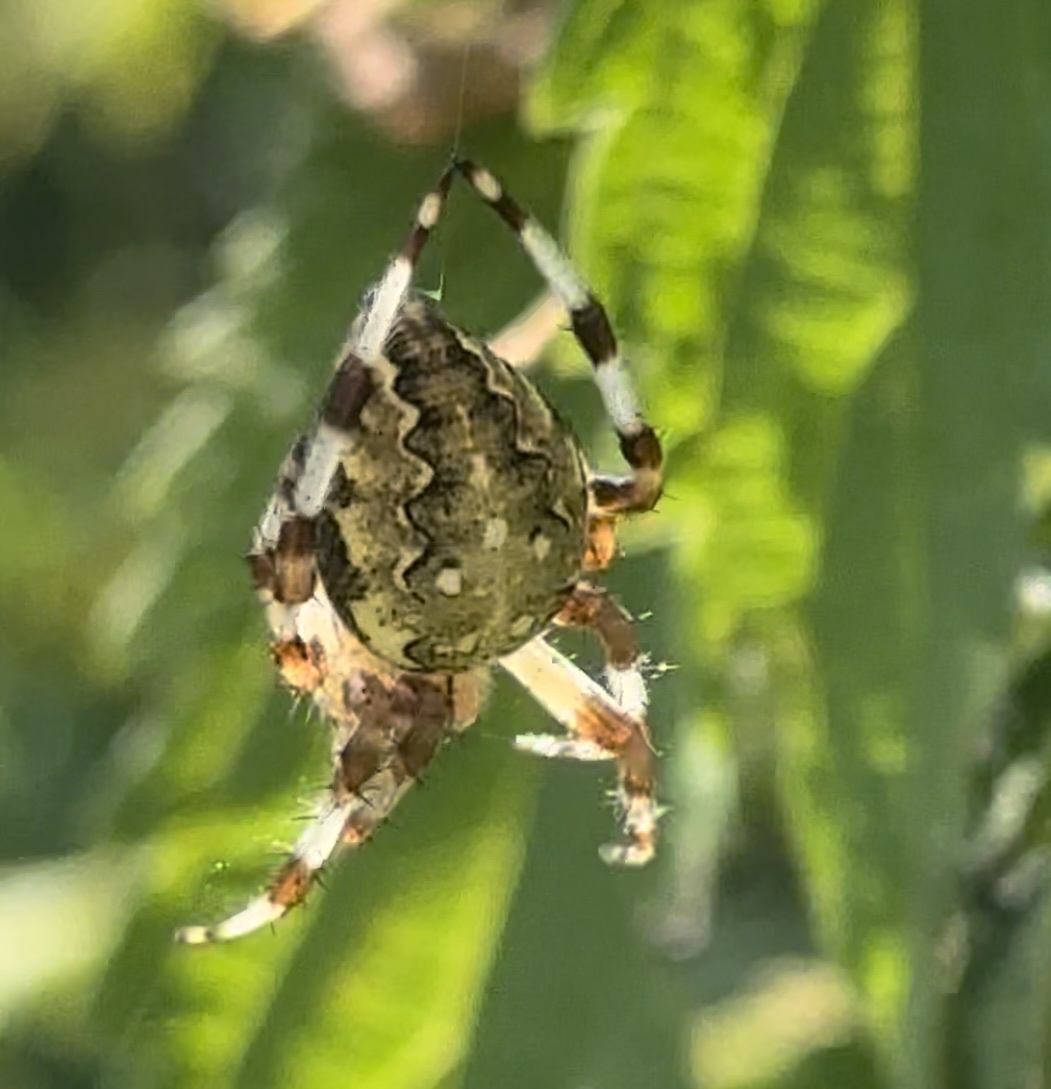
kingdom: Animalia
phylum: Arthropoda
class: Arachnida
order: Araneae
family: Araneidae
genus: Araneus
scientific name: Araneus marmoreus
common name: Marbled orbweaver
